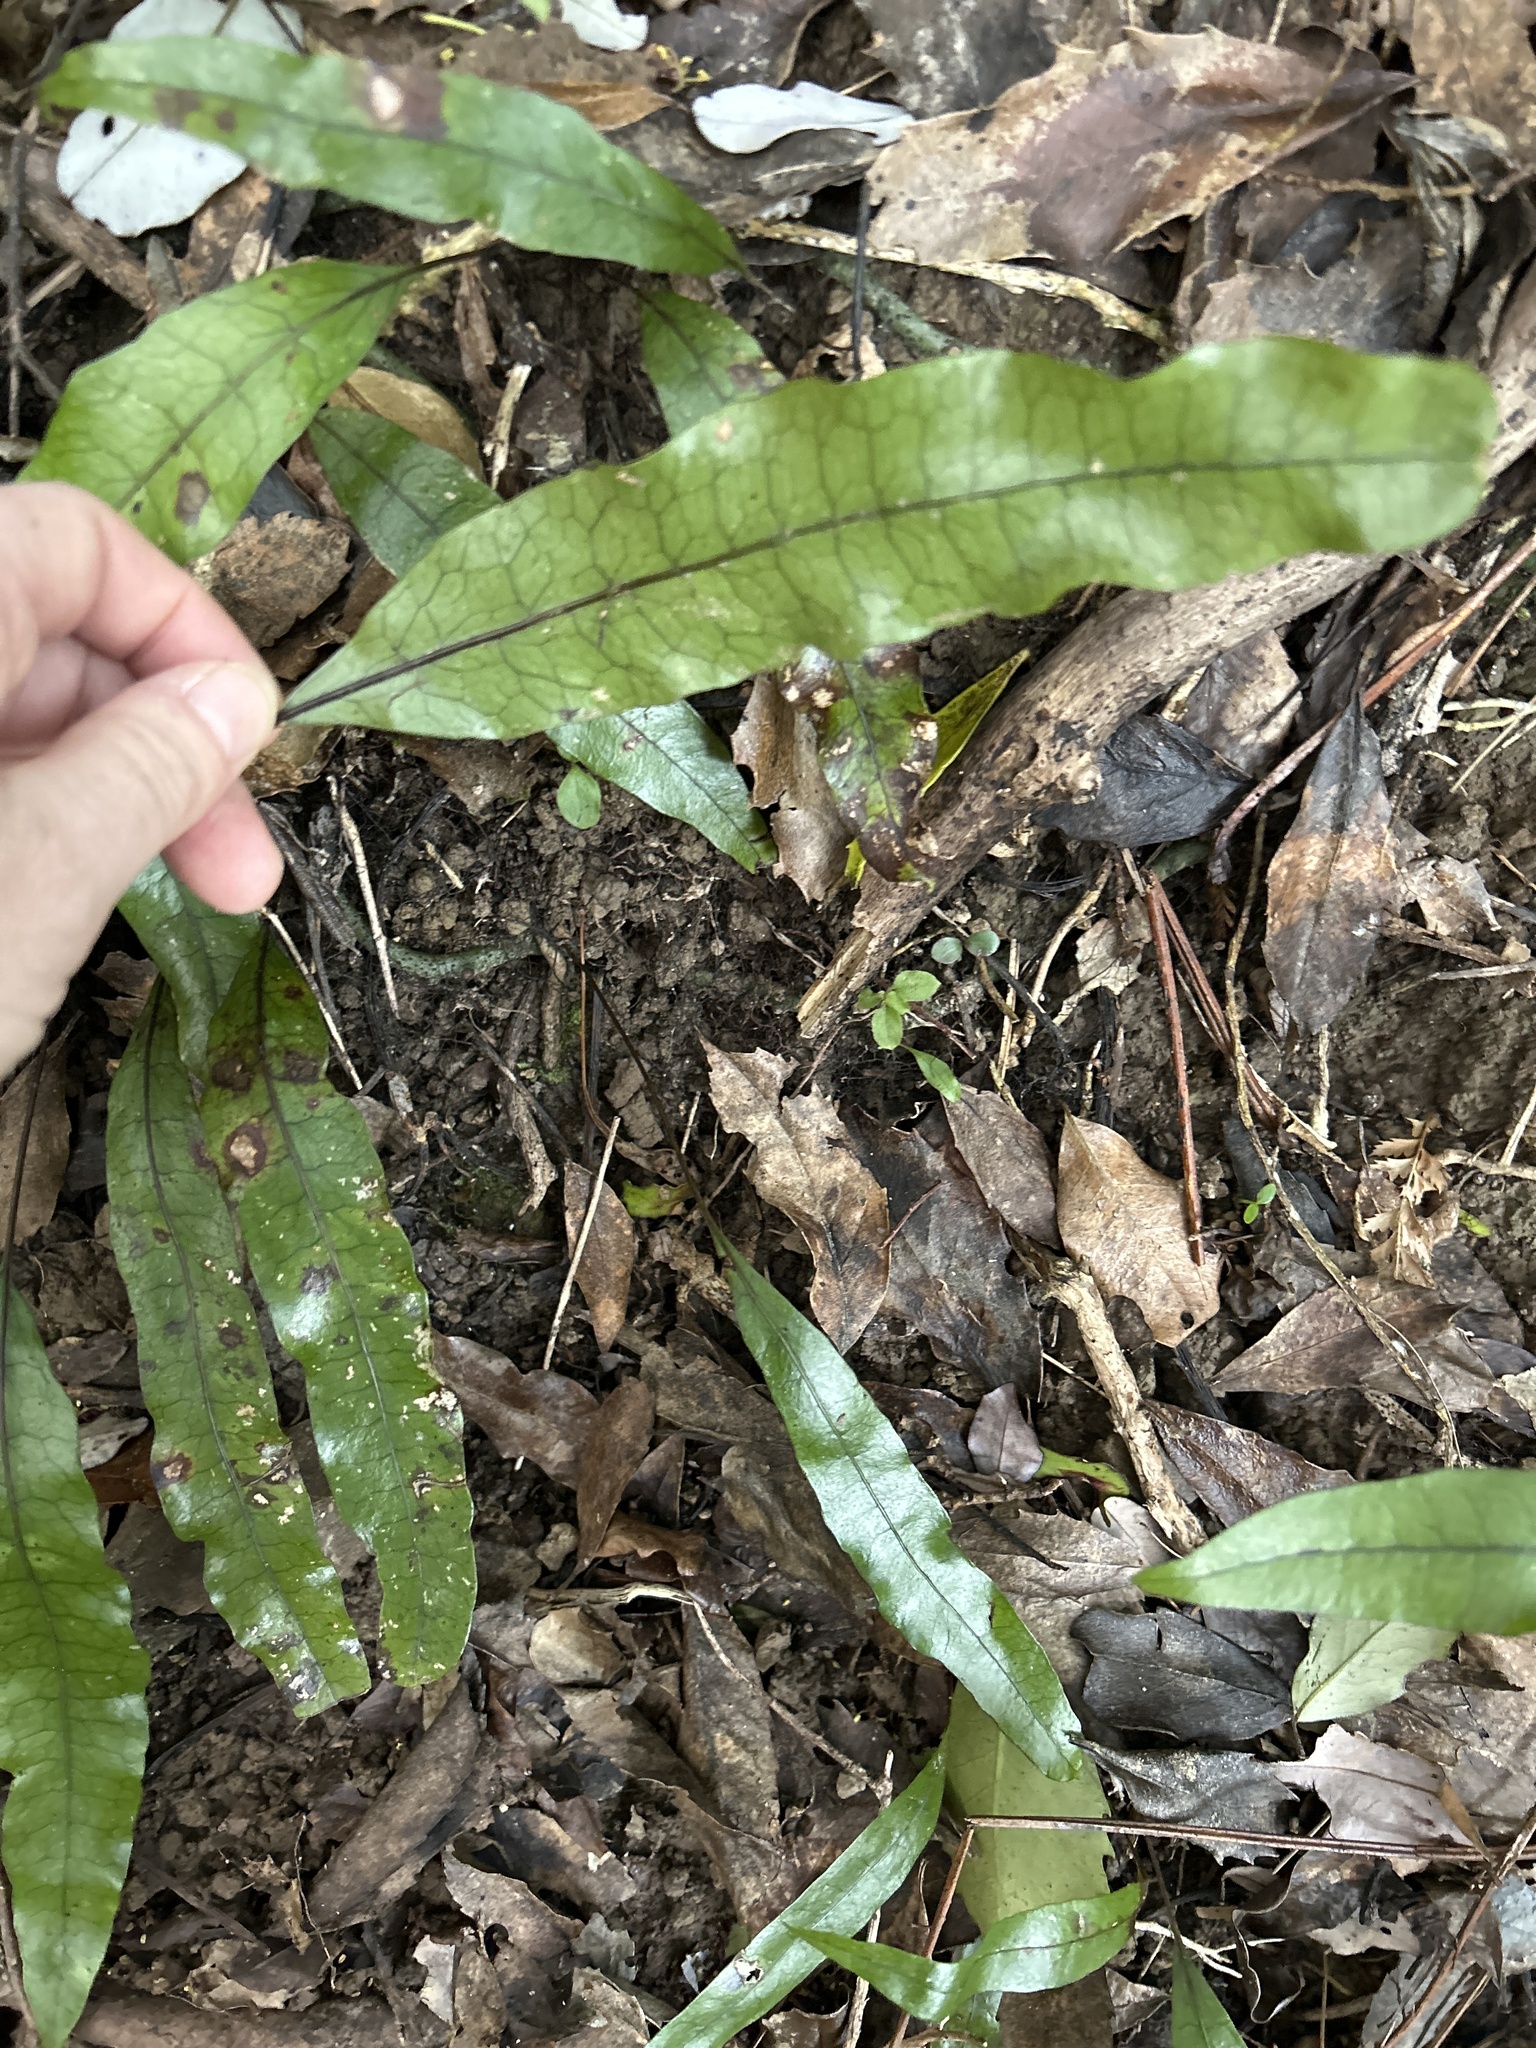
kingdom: Plantae
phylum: Tracheophyta
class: Polypodiopsida
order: Polypodiales
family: Polypodiaceae
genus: Lecanopteris
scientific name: Lecanopteris pustulata
